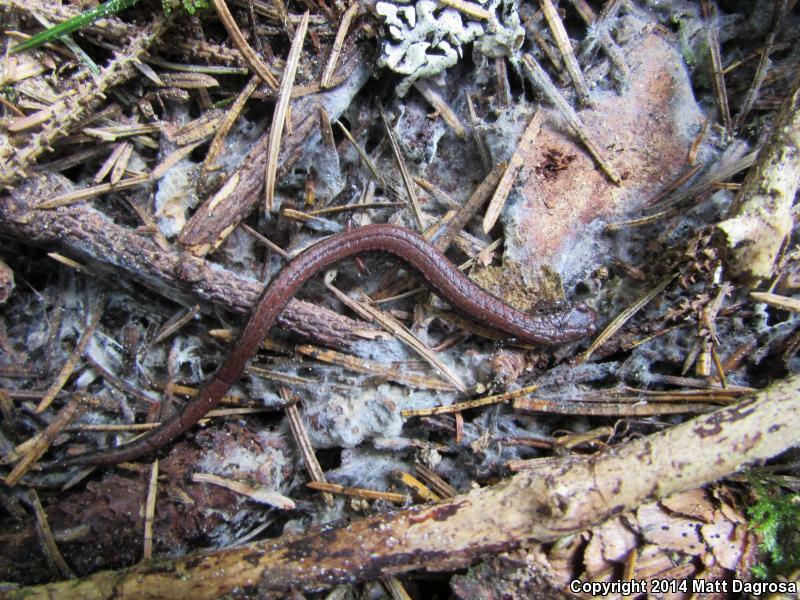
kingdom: Animalia
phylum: Chordata
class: Amphibia
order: Caudata
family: Plethodontidae
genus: Batrachoseps
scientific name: Batrachoseps attenuatus
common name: California slender salamander
